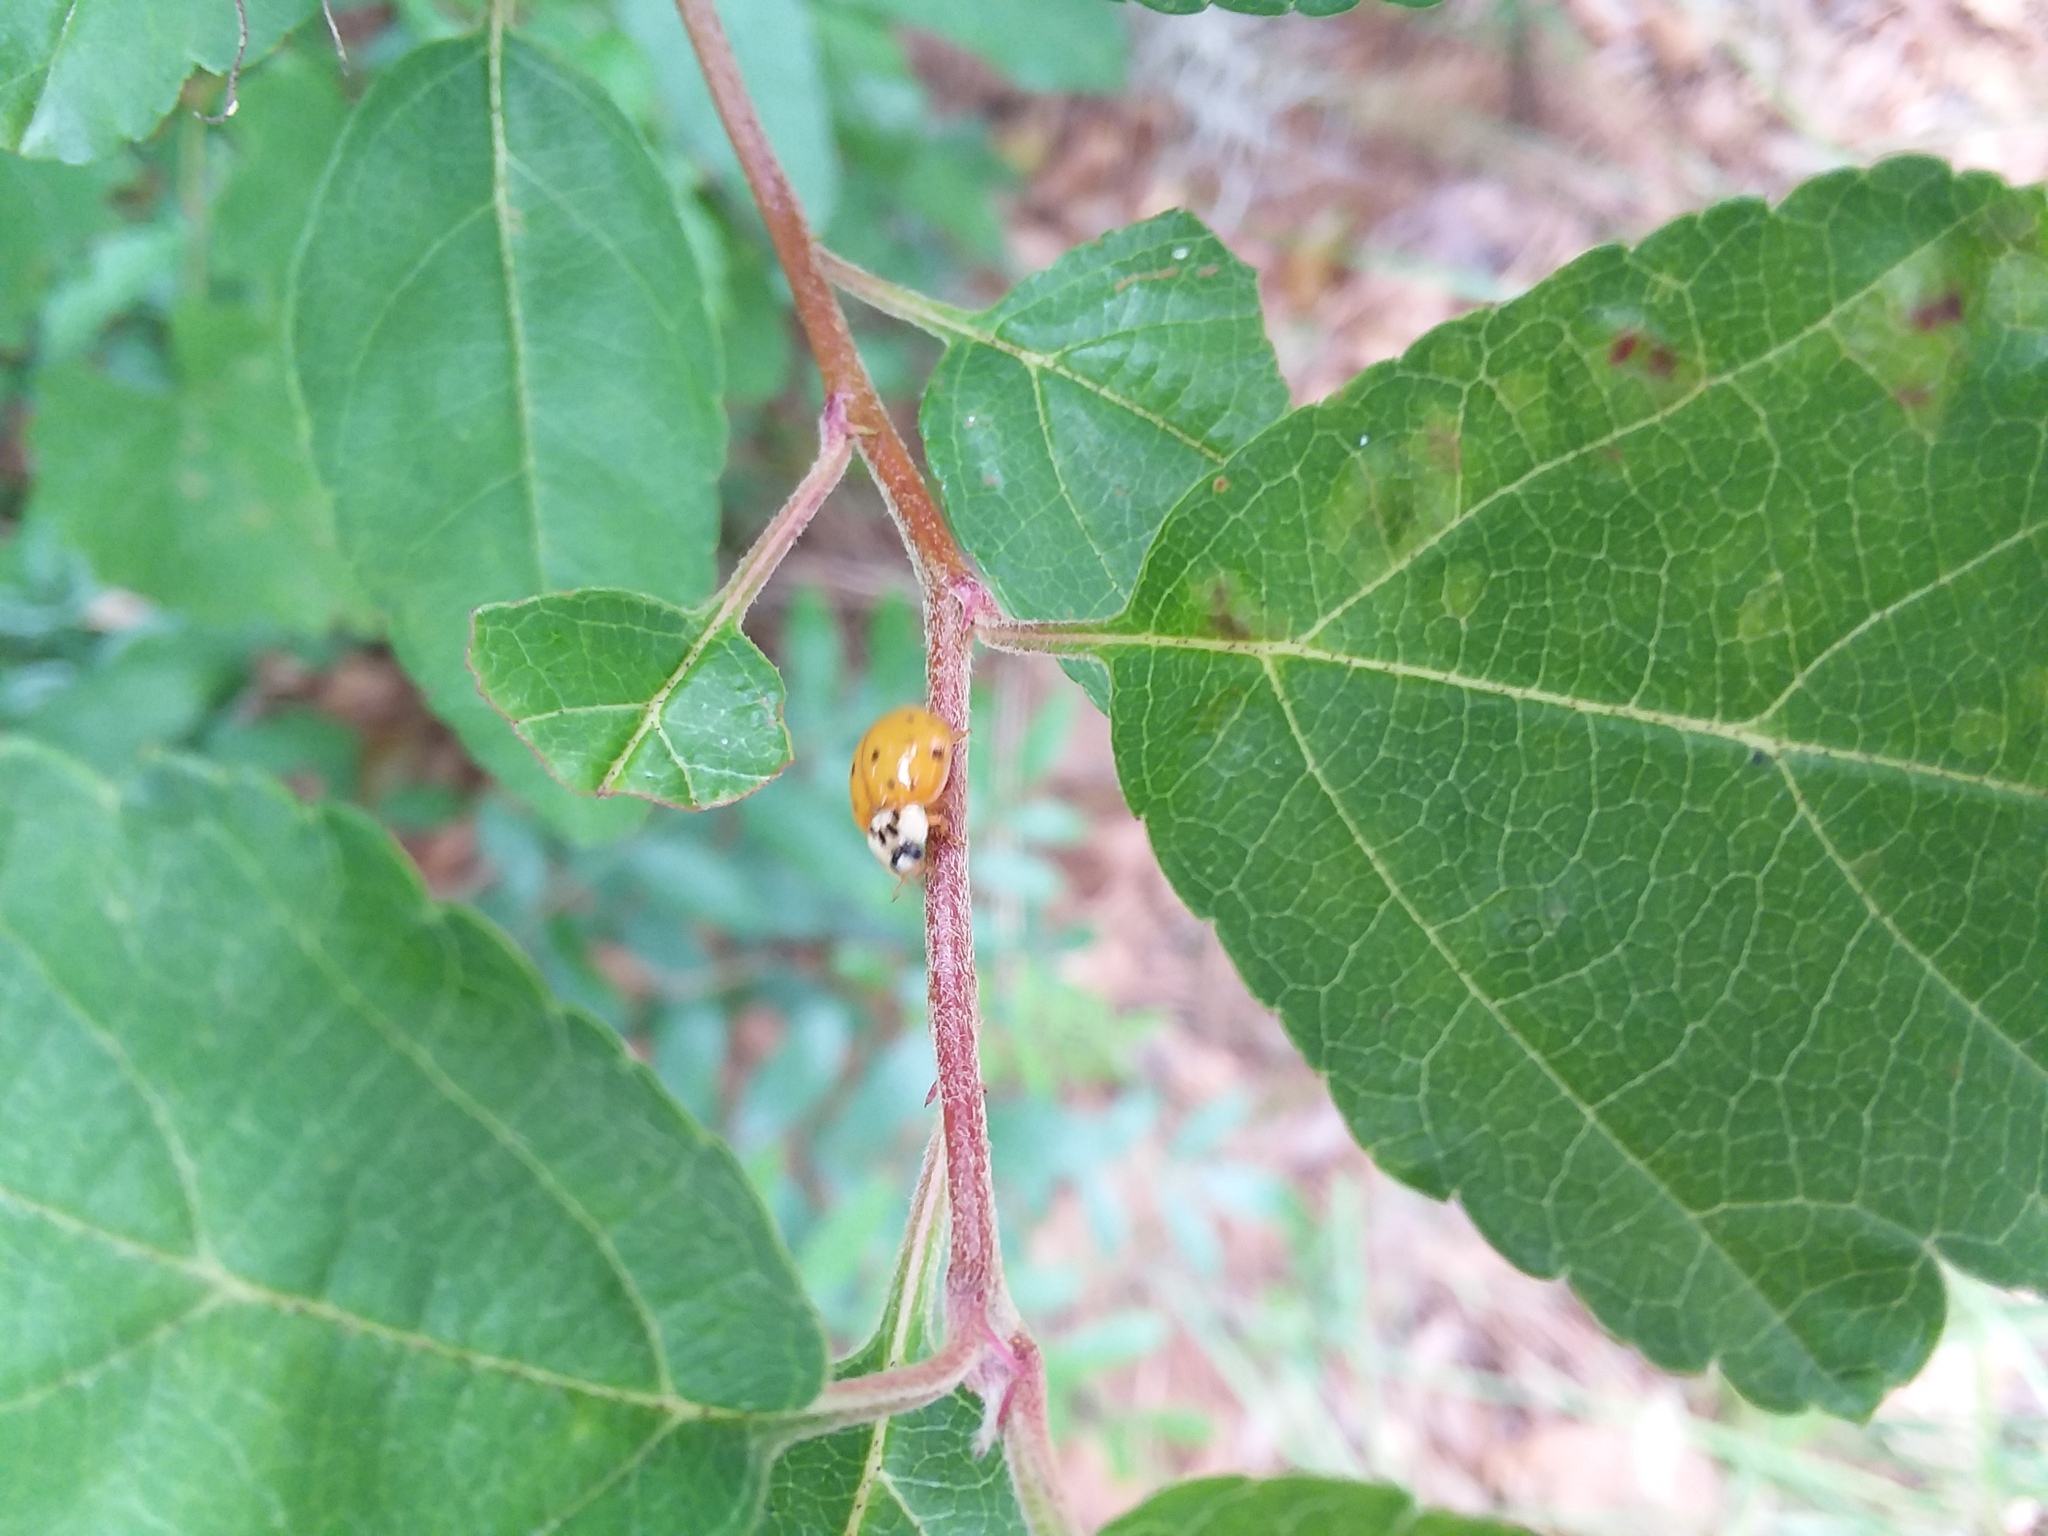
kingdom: Animalia
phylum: Arthropoda
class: Insecta
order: Coleoptera
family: Coccinellidae
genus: Harmonia
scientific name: Harmonia axyridis
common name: Harlequin ladybird
